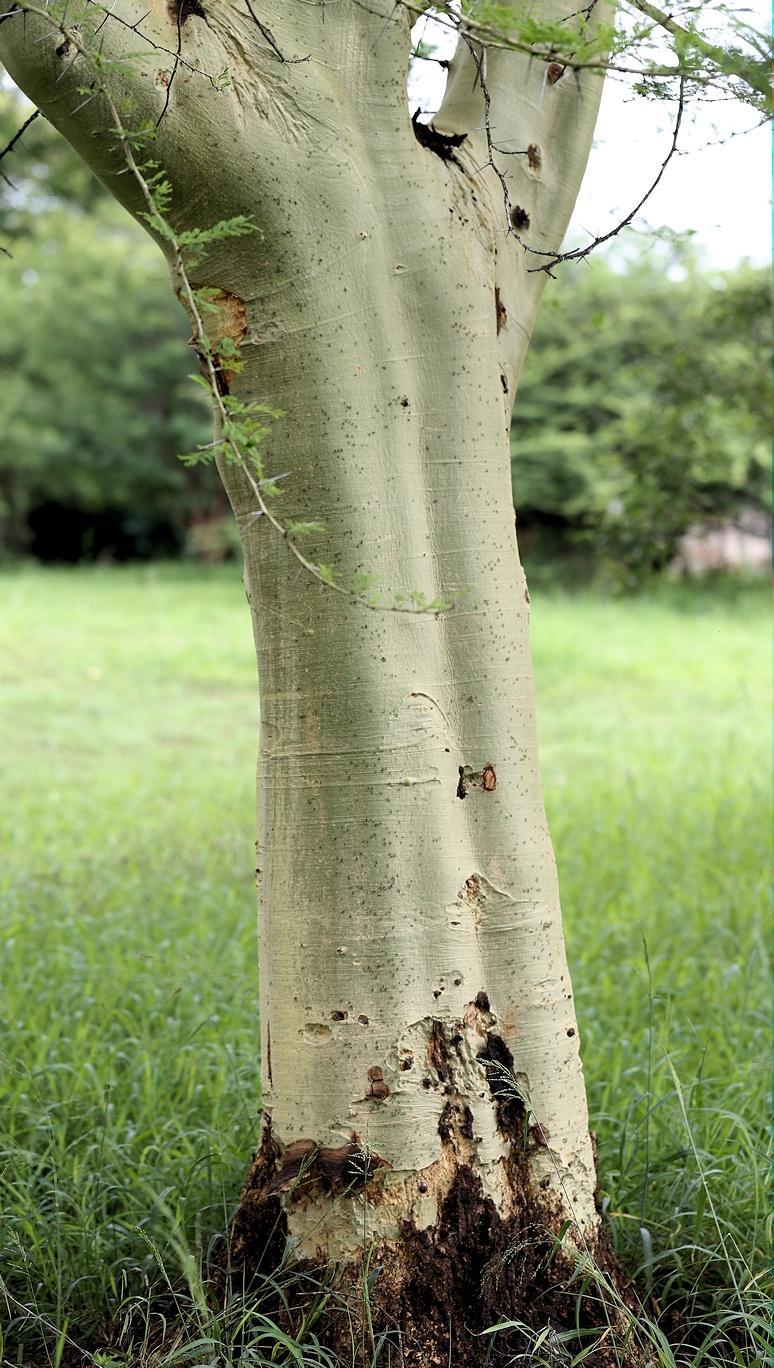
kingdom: Plantae
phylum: Tracheophyta
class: Magnoliopsida
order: Fabales
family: Fabaceae
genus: Vachellia
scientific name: Vachellia xanthophloea
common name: Fever tree
